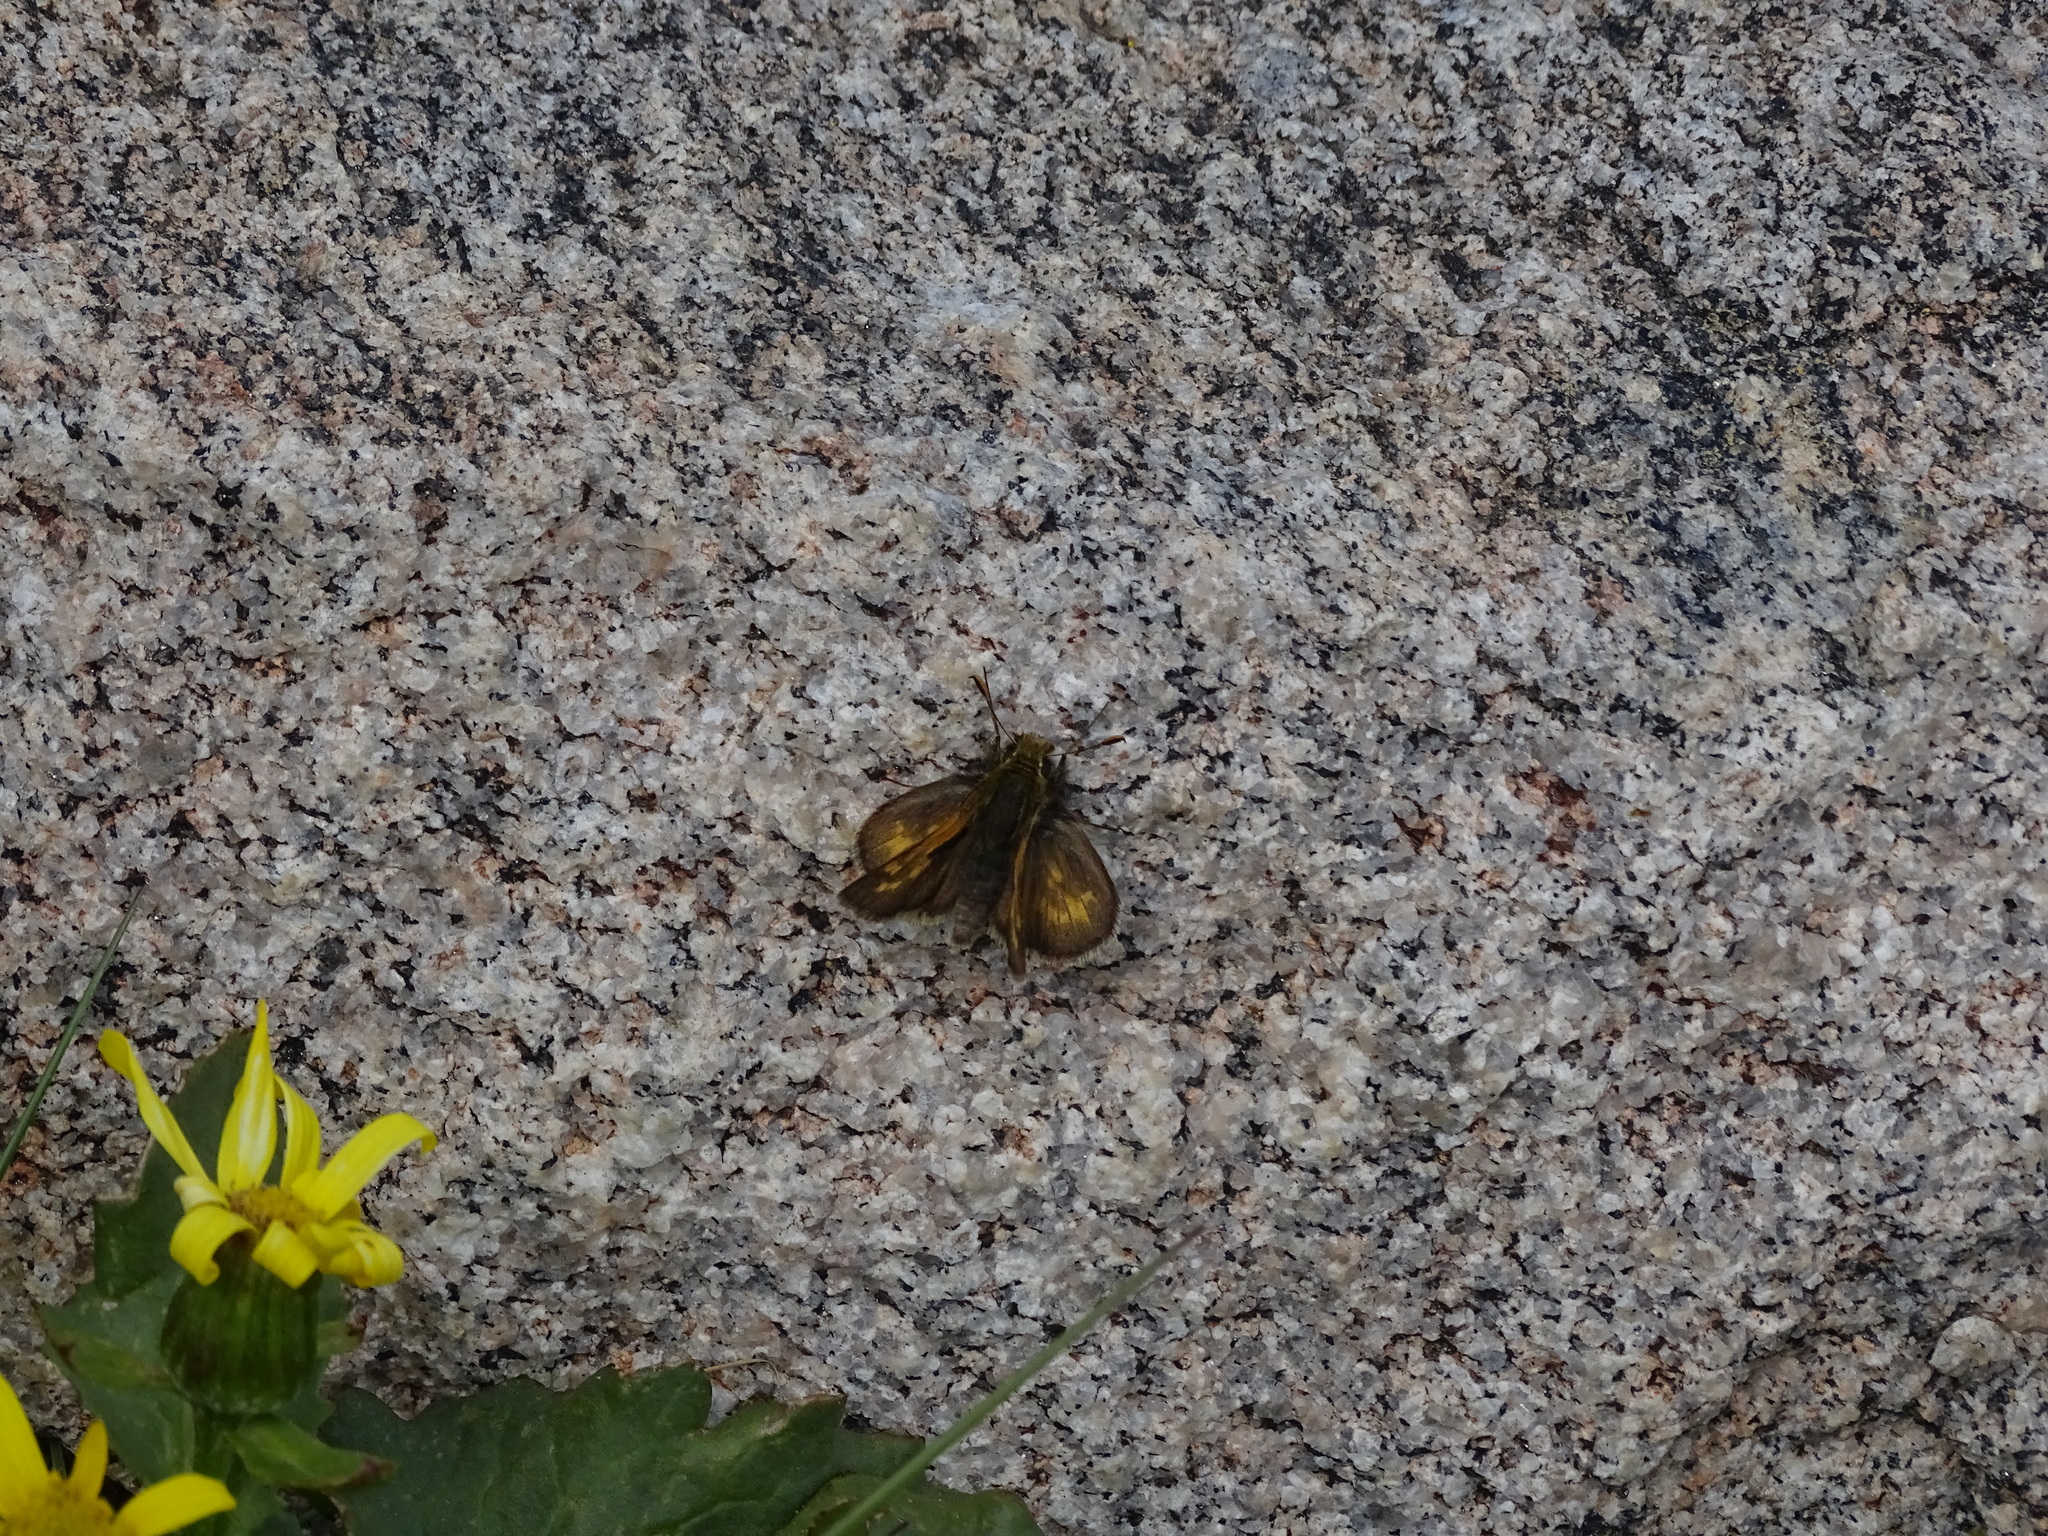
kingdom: Animalia
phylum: Arthropoda
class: Insecta
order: Lepidoptera
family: Hesperiidae
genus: Polites
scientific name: Polites sabuleti
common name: Sandhill skipper
